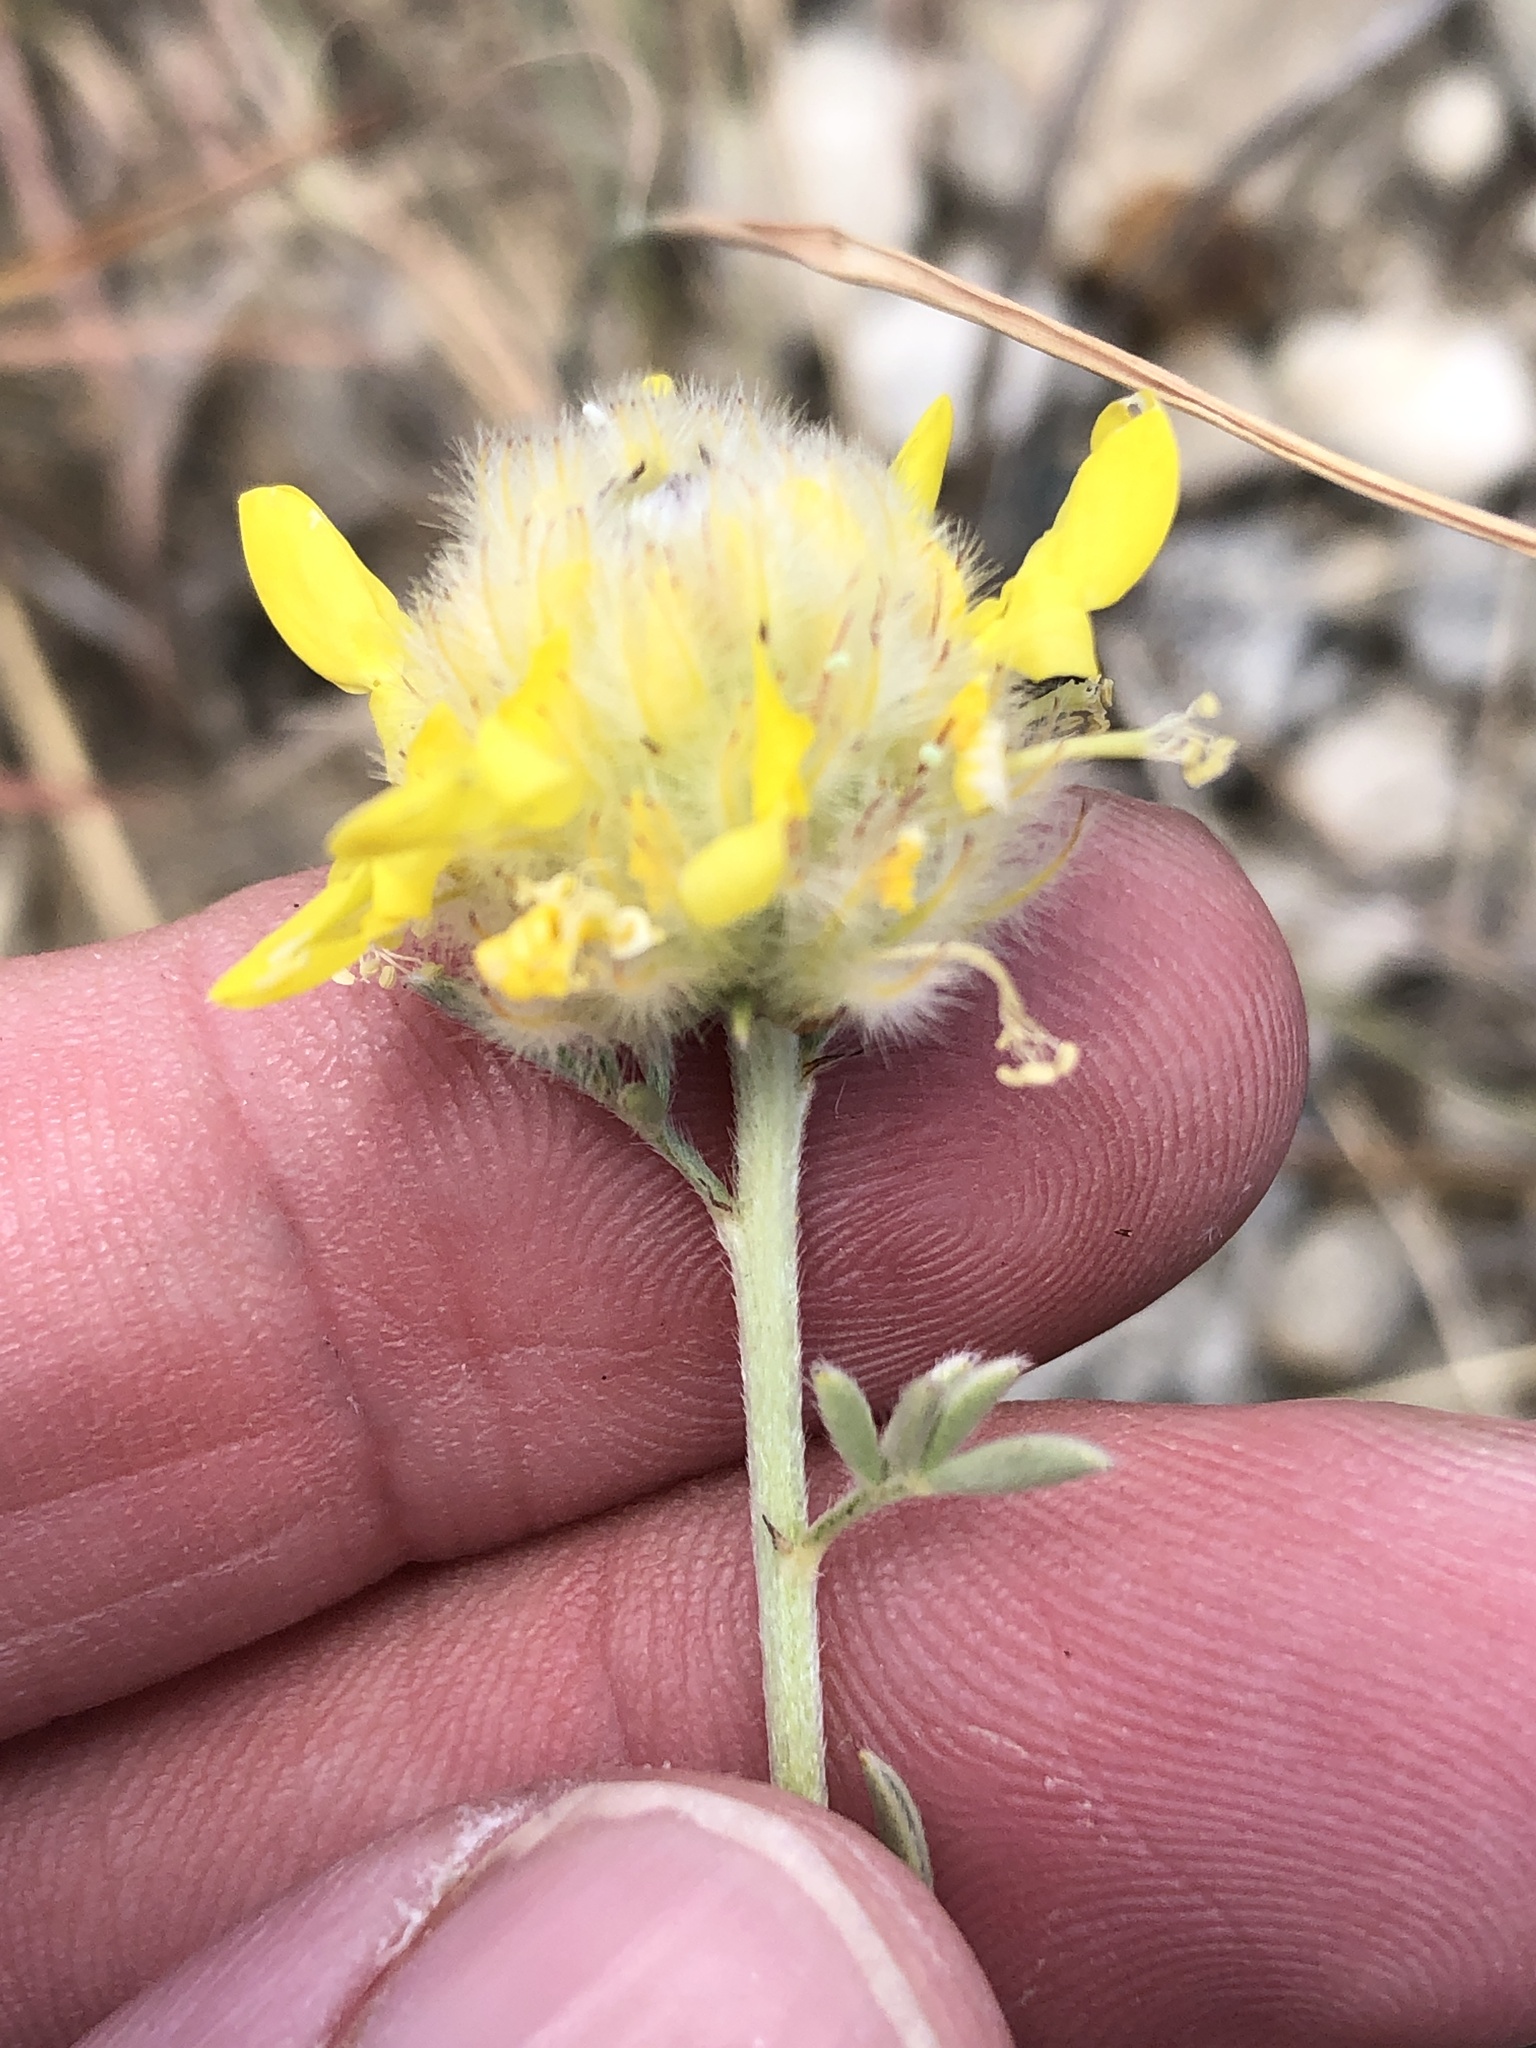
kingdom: Plantae
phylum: Tracheophyta
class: Magnoliopsida
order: Fabales
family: Fabaceae
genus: Dalea
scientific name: Dalea aurea
